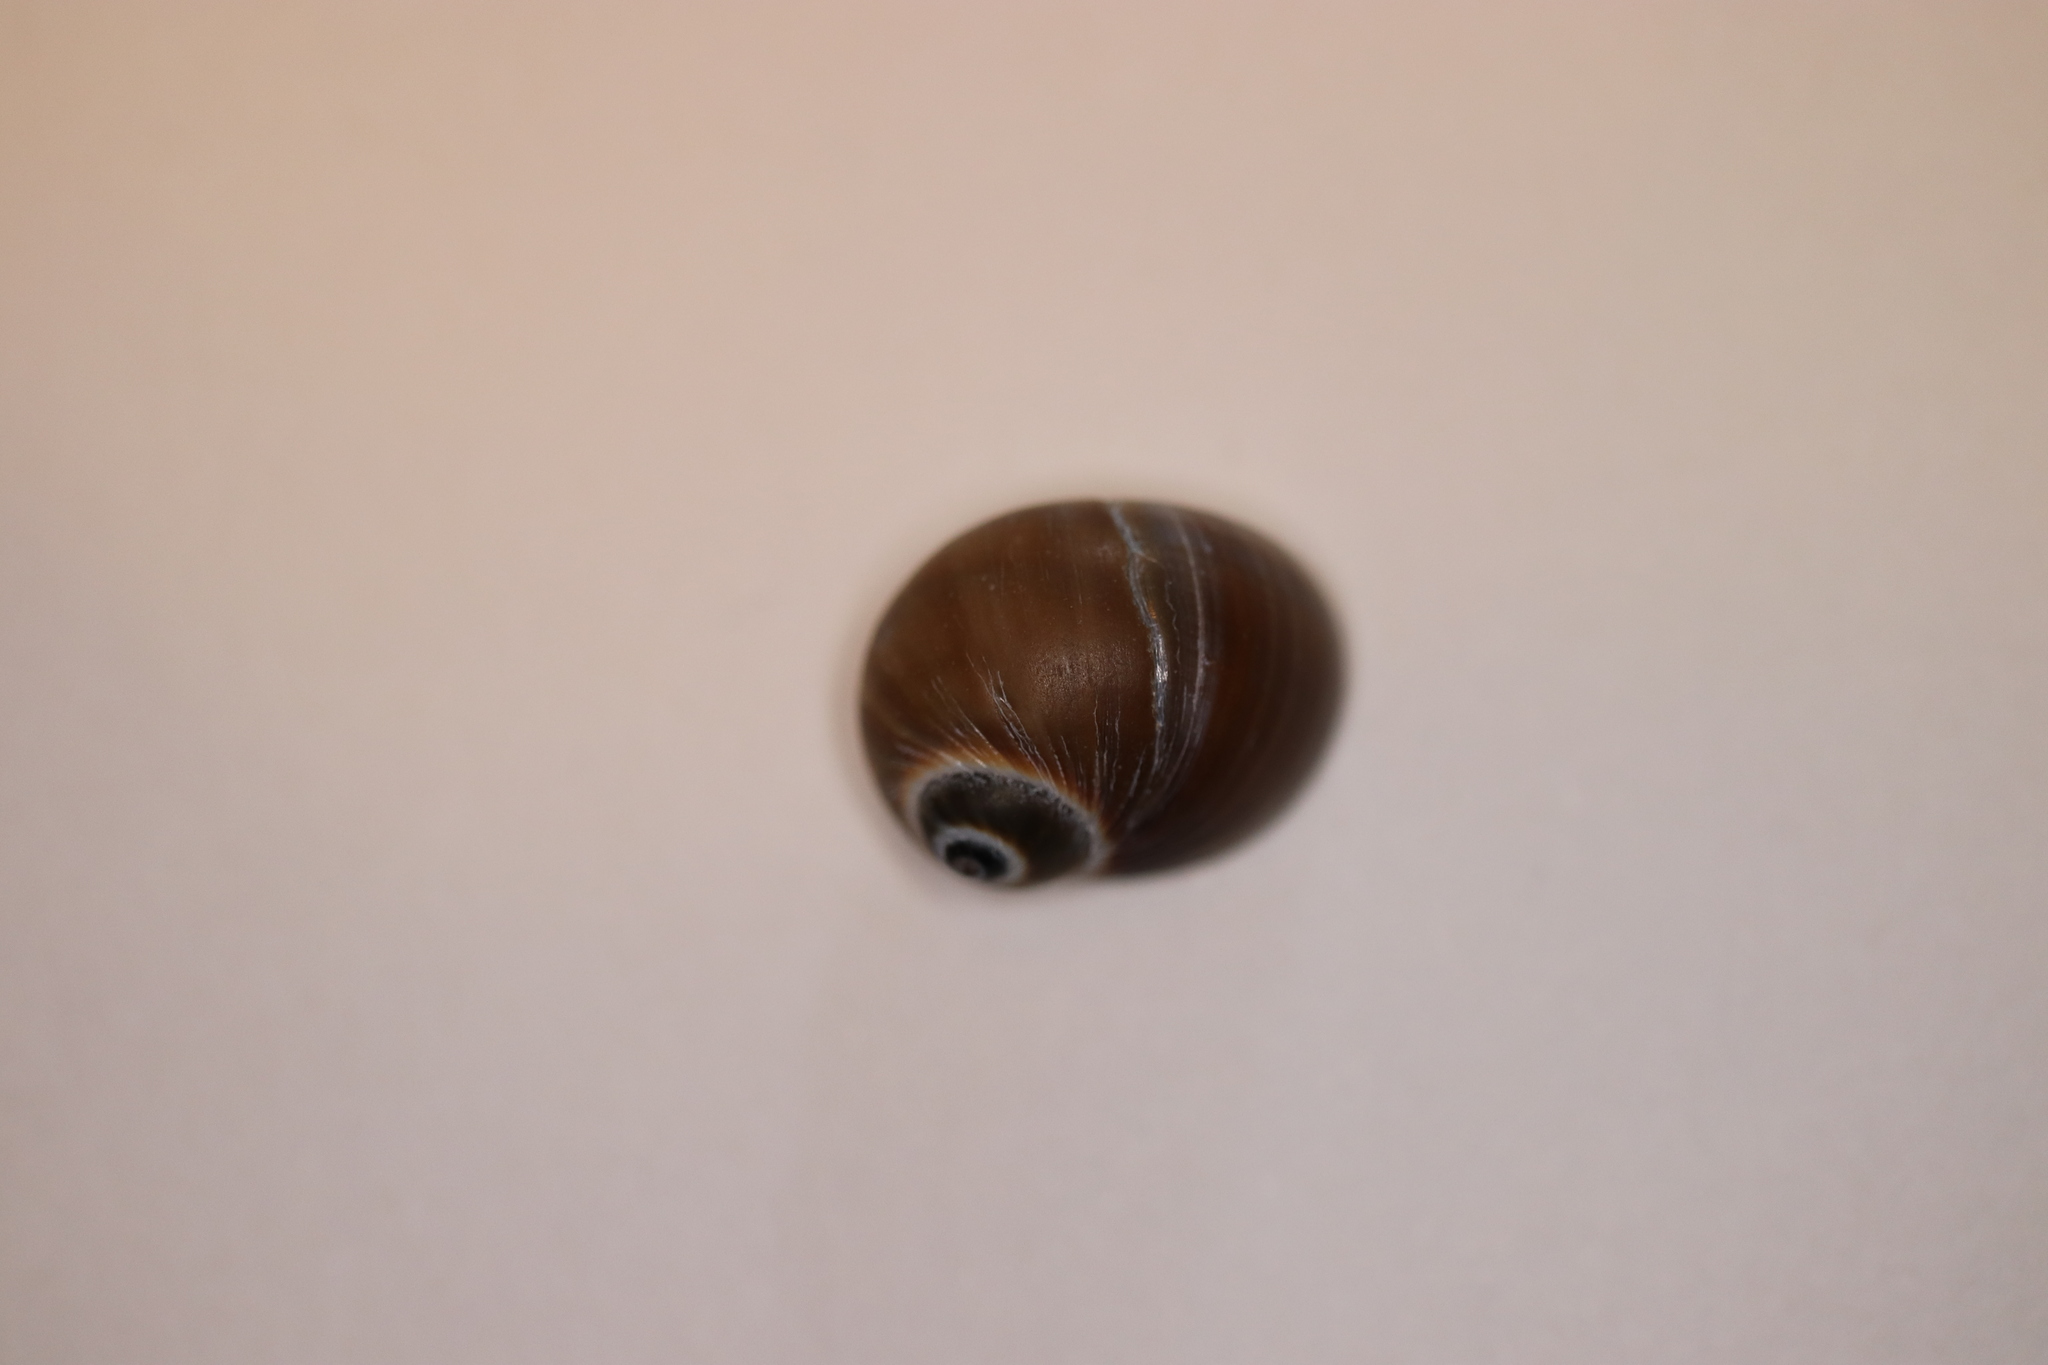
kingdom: Animalia
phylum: Mollusca
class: Gastropoda
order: Littorinimorpha
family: Naticidae
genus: Notocochlis
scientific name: Notocochlis gualteriana
